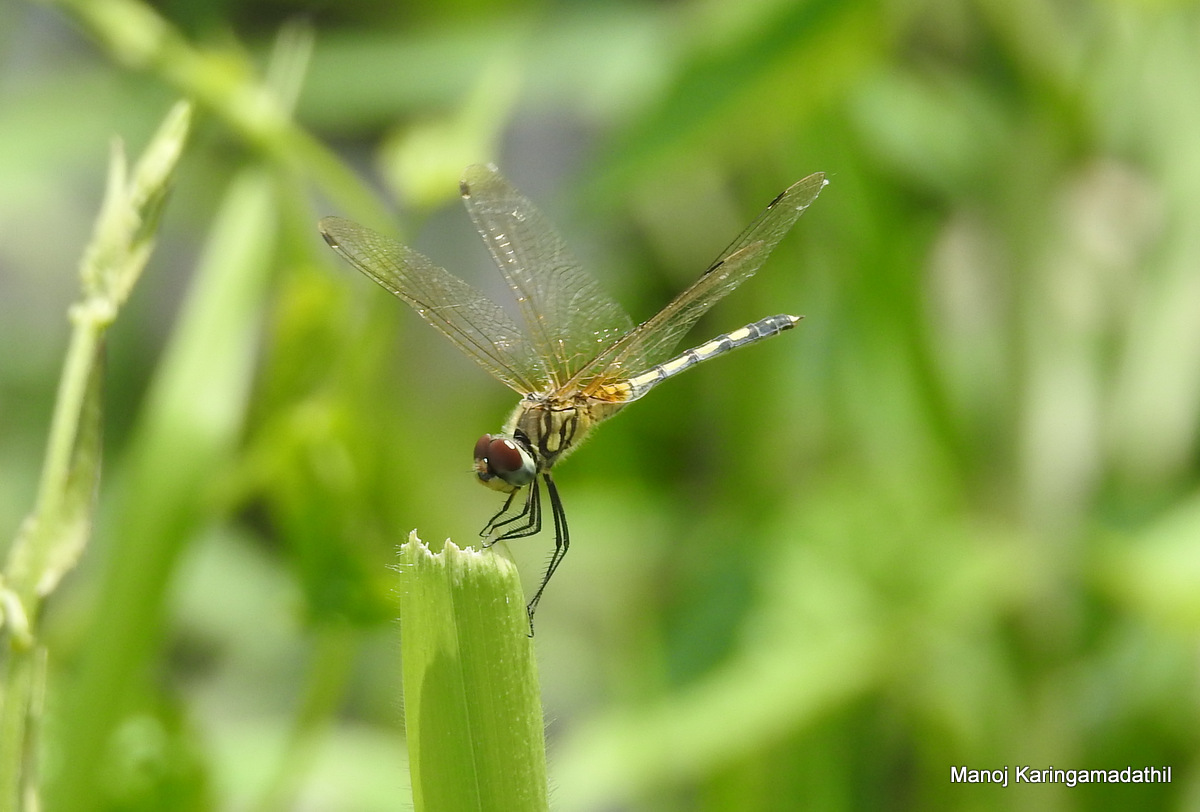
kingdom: Animalia
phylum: Arthropoda
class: Insecta
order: Odonata
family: Libellulidae
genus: Trithemis
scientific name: Trithemis pallidinervis
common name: Dancing dropwing
